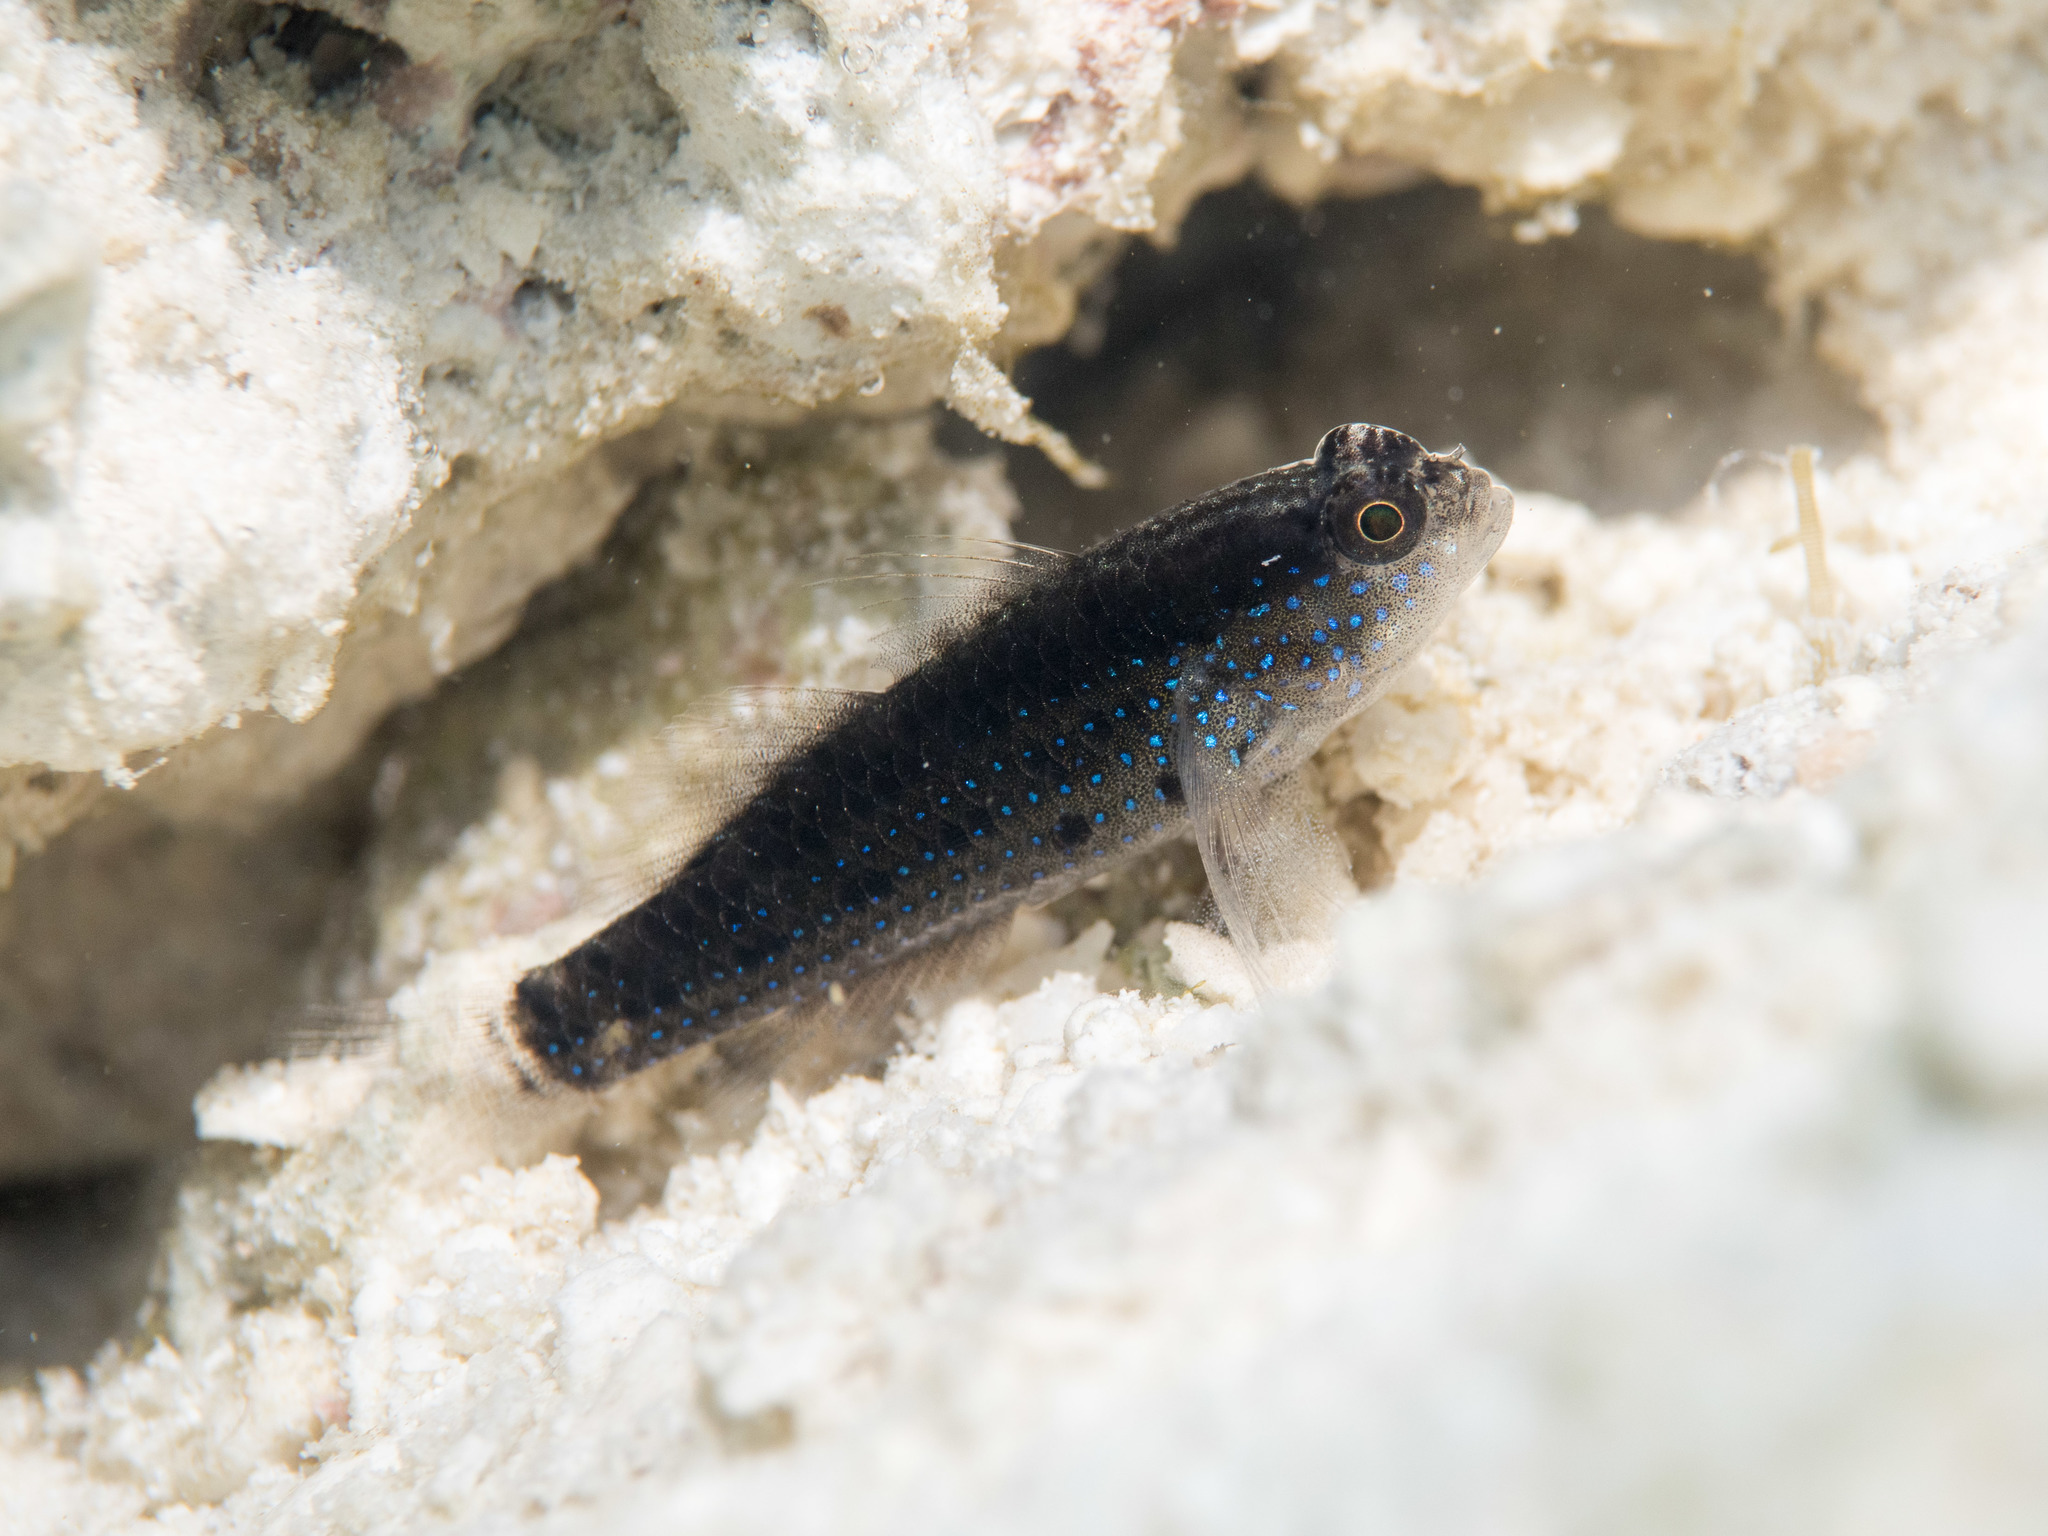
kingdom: Animalia
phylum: Chordata
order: Perciformes
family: Gobiidae
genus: Asterropteryx
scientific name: Asterropteryx semipunctata
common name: Starry goby
